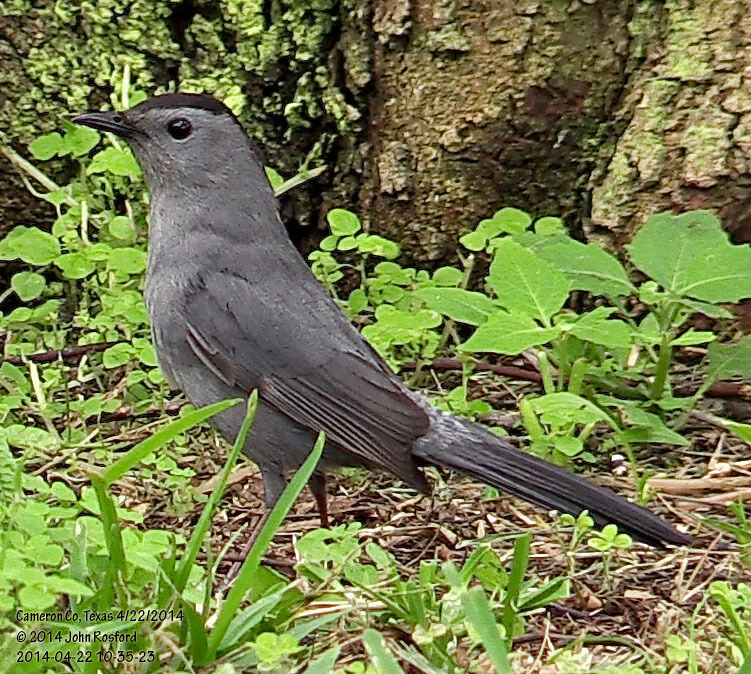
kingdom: Animalia
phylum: Chordata
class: Aves
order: Passeriformes
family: Mimidae
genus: Dumetella
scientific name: Dumetella carolinensis
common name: Gray catbird
